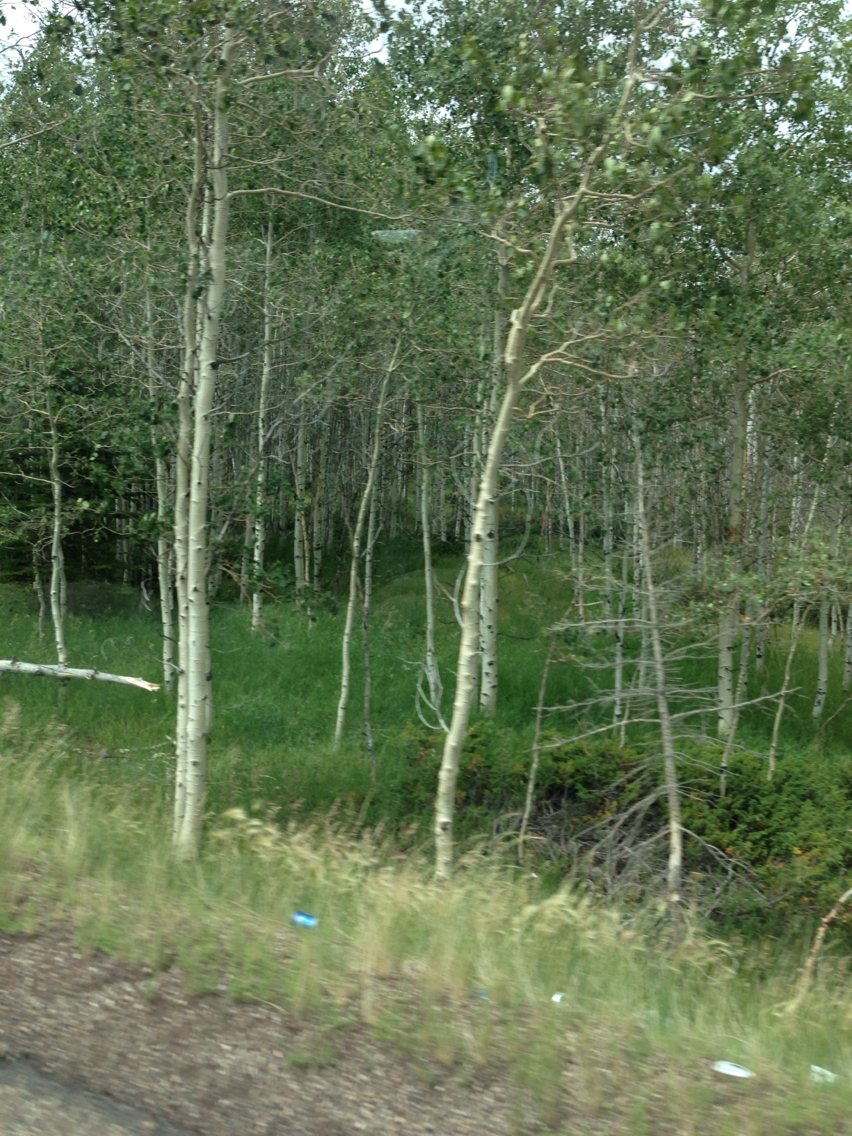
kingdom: Plantae
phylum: Tracheophyta
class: Magnoliopsida
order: Malpighiales
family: Salicaceae
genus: Populus
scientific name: Populus tremuloides
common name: Quaking aspen
